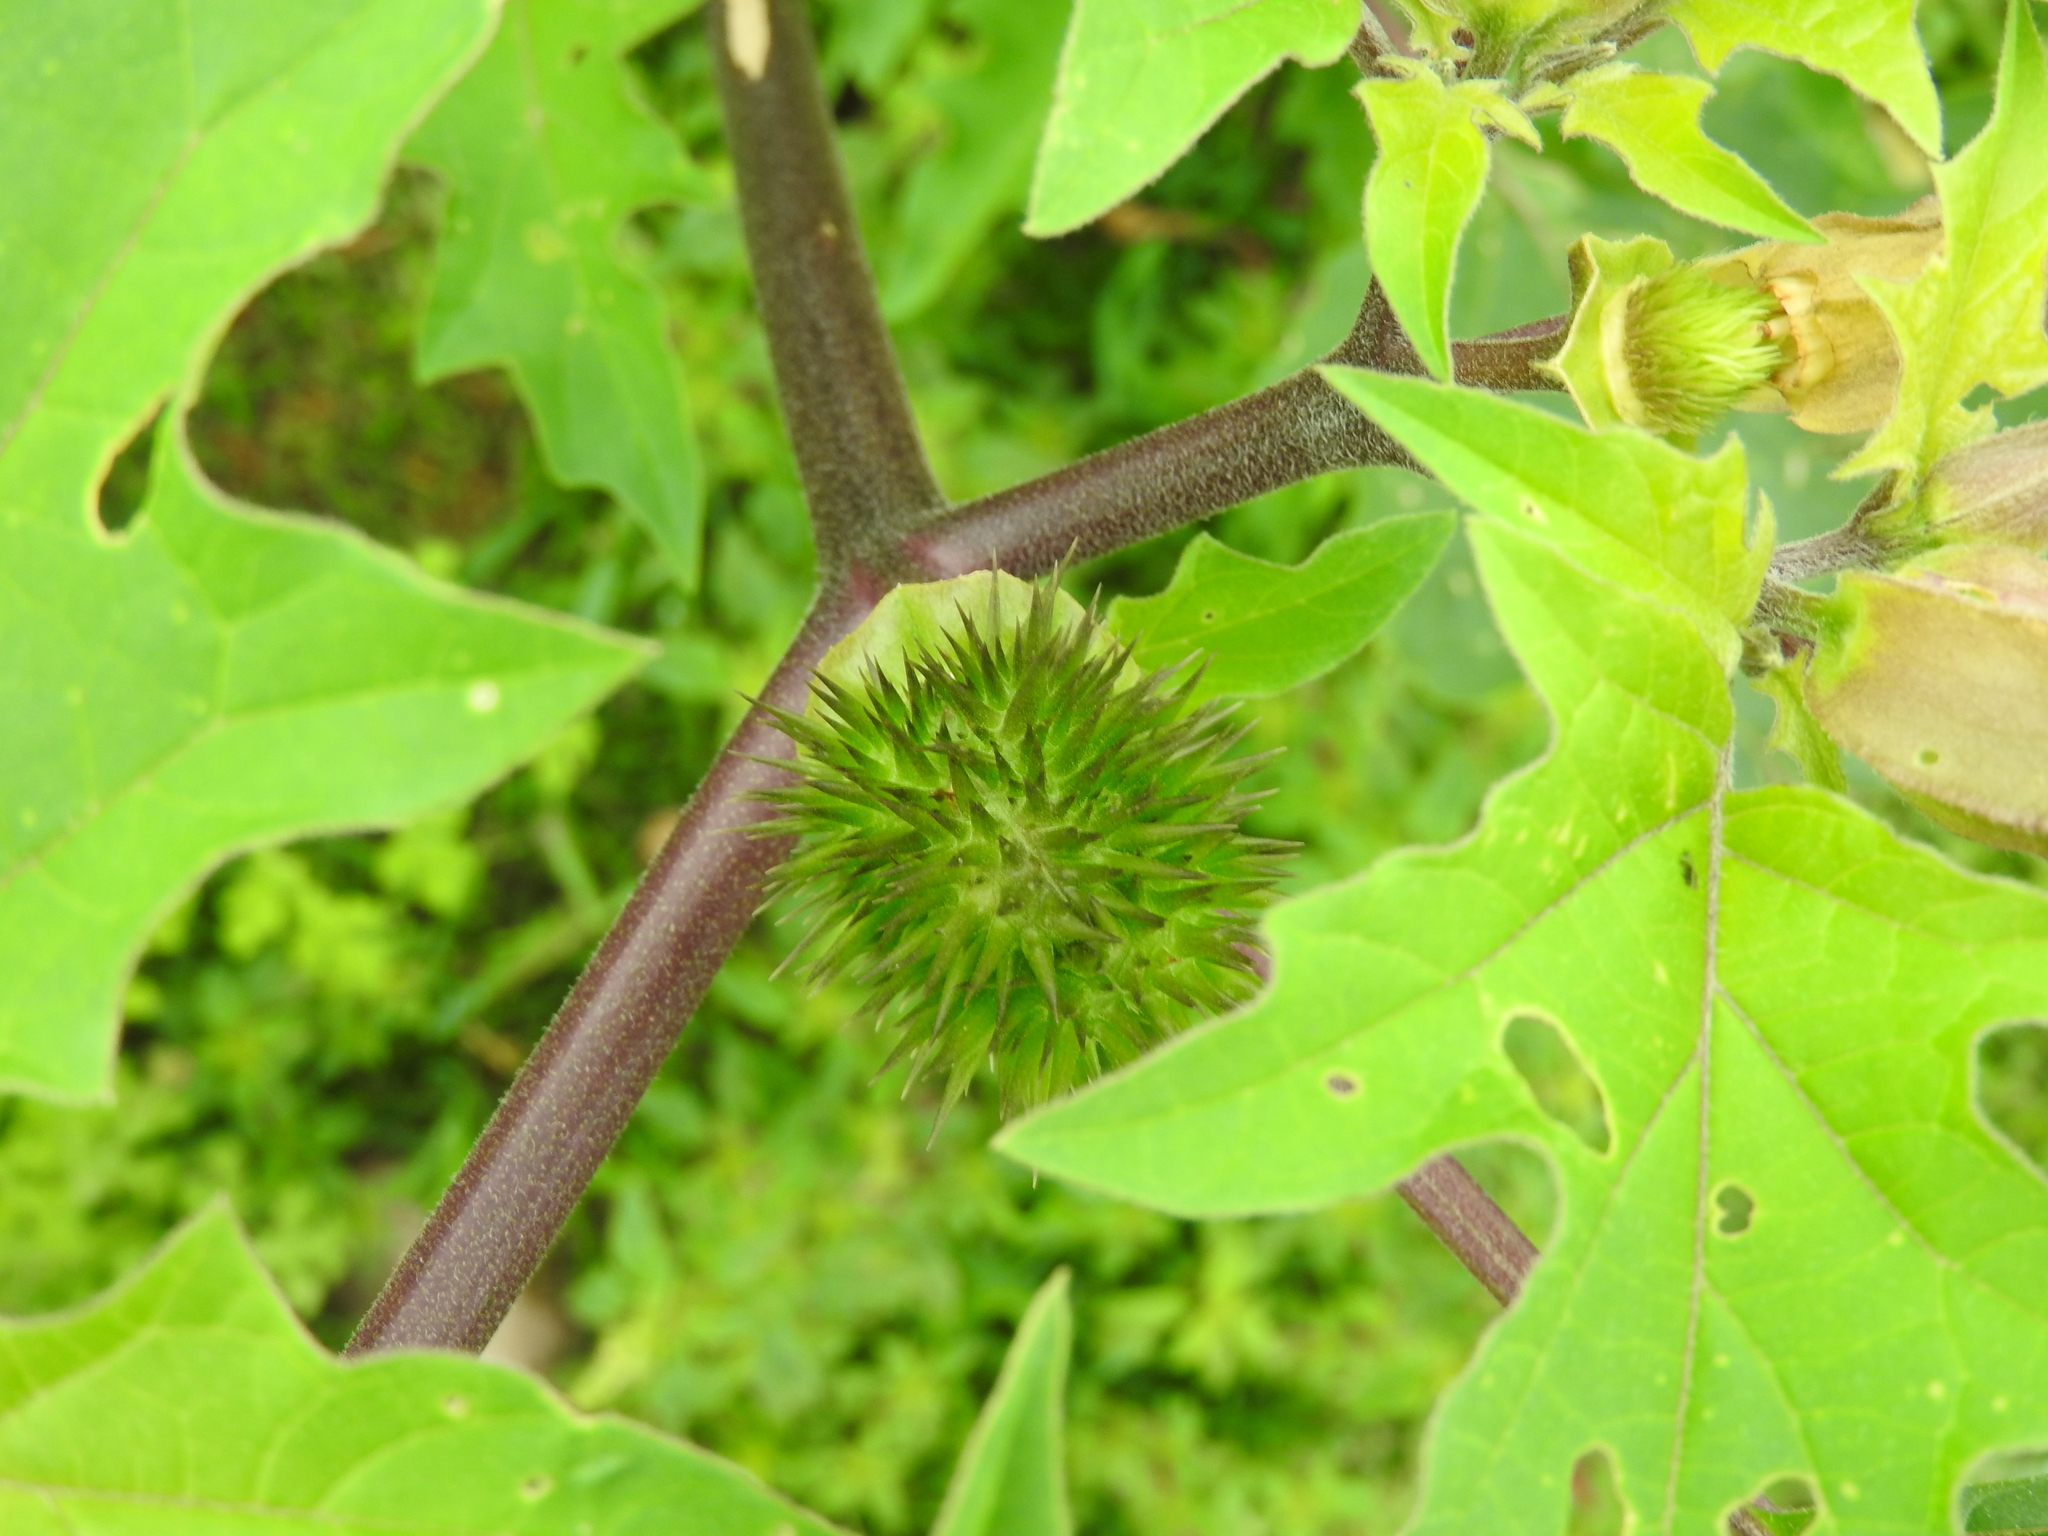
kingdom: Plantae
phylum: Tracheophyta
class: Magnoliopsida
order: Solanales
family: Solanaceae
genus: Datura
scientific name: Datura stramonium
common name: Thorn-apple
